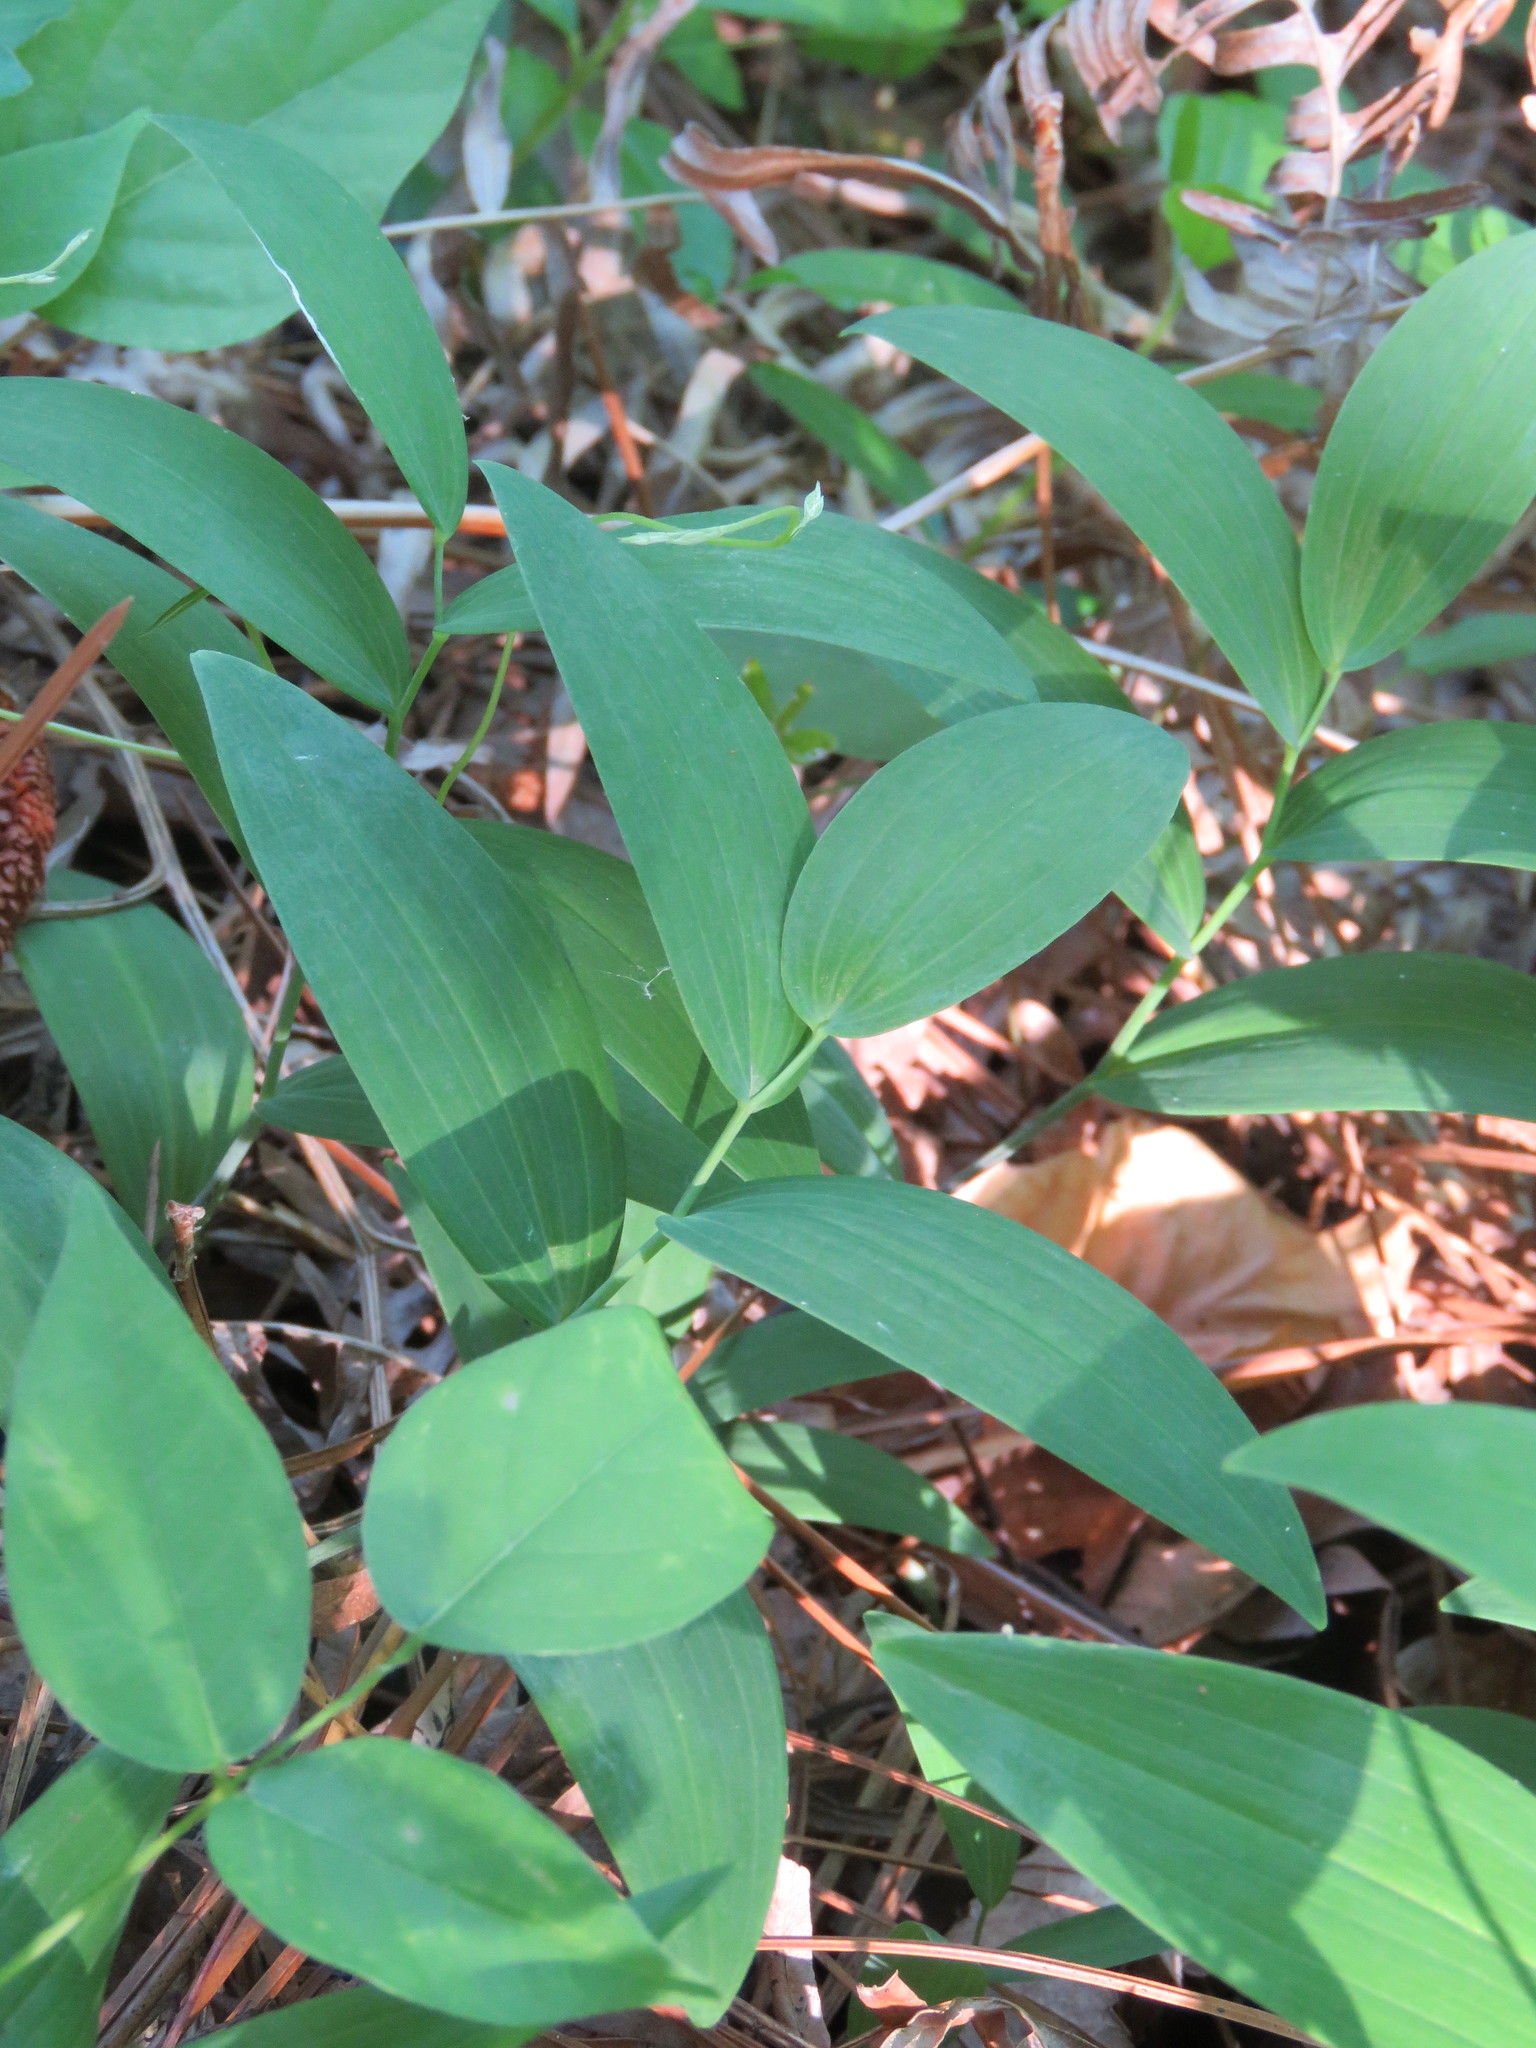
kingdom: Plantae
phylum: Tracheophyta
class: Liliopsida
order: Asparagales
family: Asparagaceae
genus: Polygonatum
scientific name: Polygonatum biflorum
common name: American solomon's-seal
